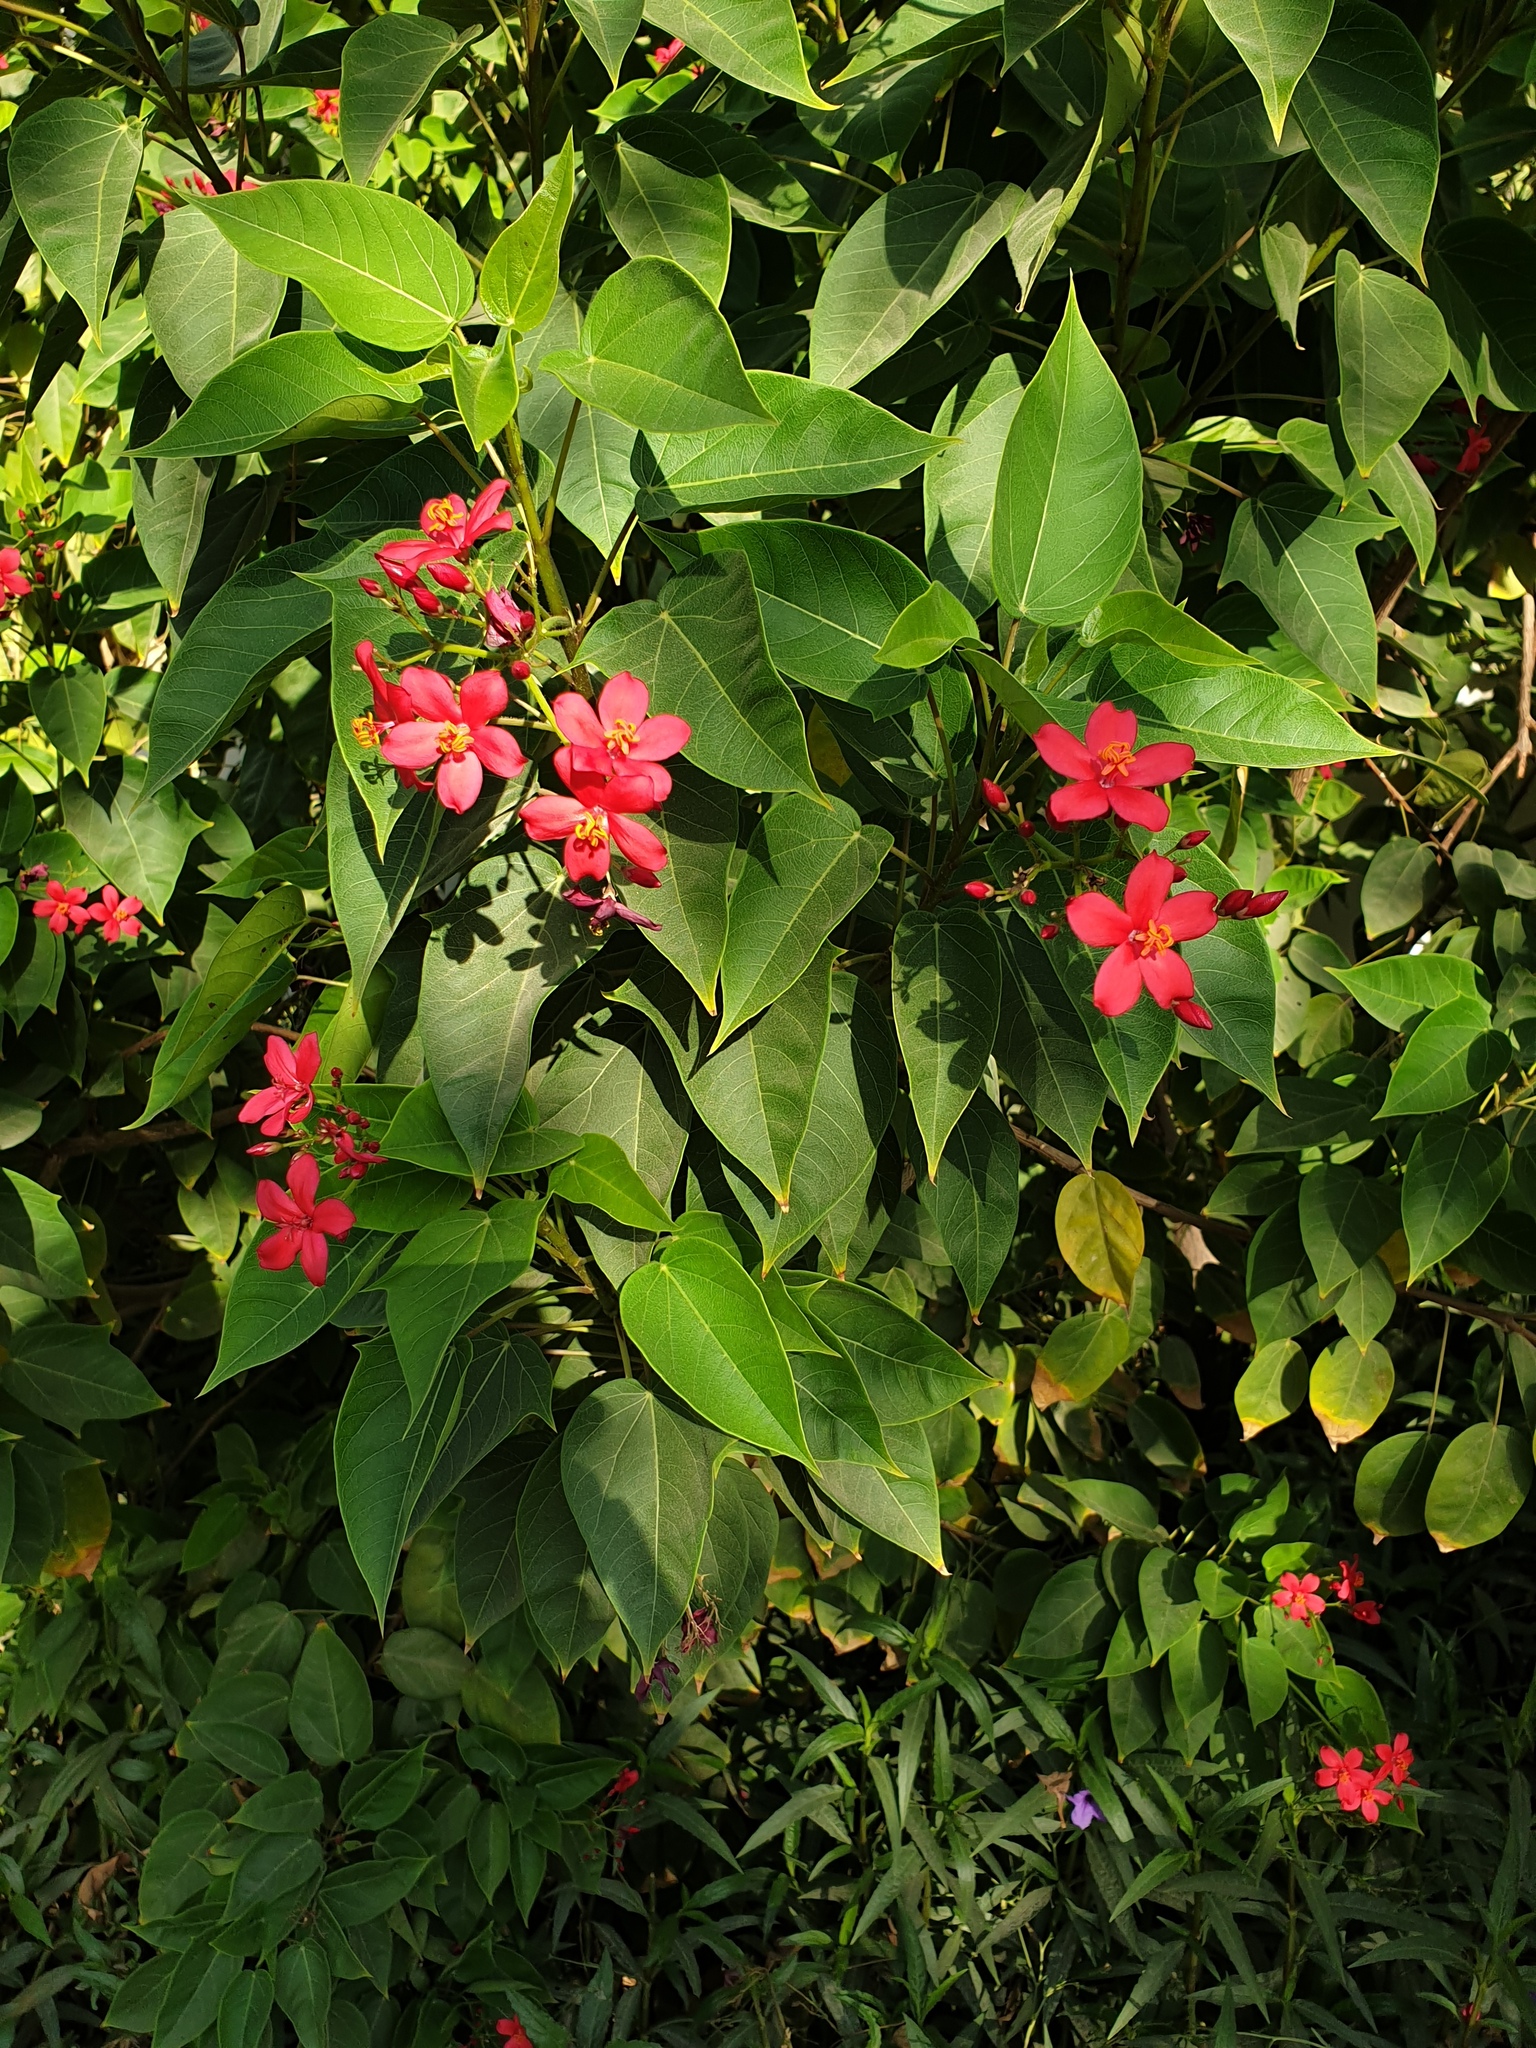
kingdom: Plantae
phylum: Tracheophyta
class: Magnoliopsida
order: Malpighiales
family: Euphorbiaceae
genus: Jatropha
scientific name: Jatropha integerrima
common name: Peregrina
